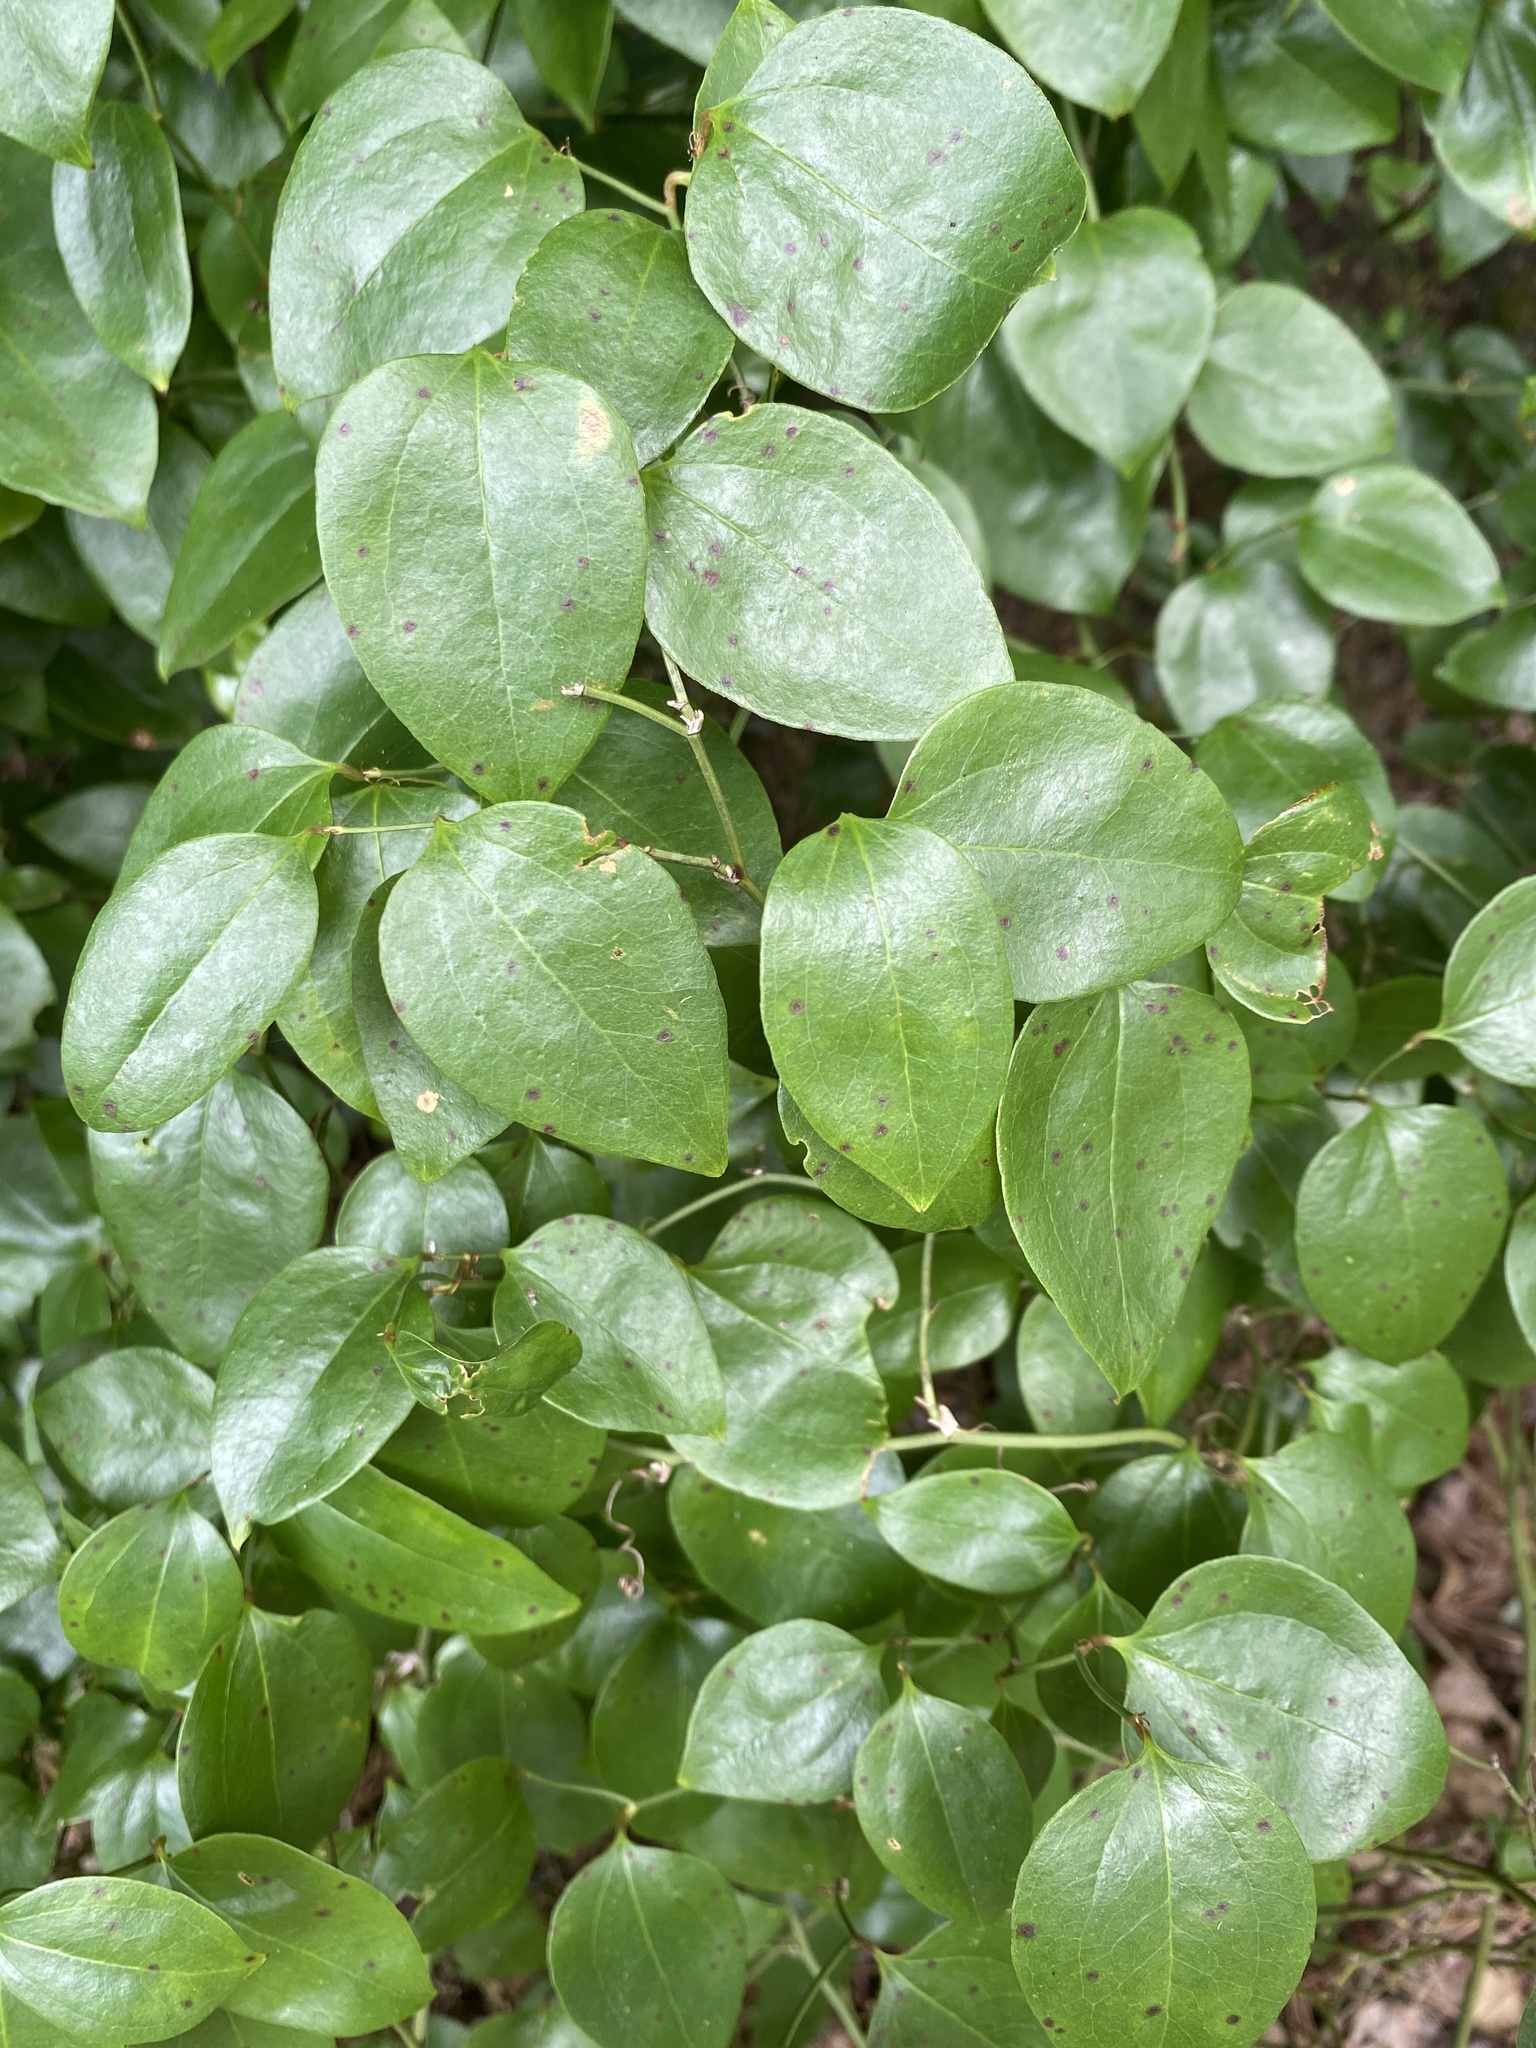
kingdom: Plantae
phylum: Tracheophyta
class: Liliopsida
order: Liliales
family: Smilacaceae
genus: Smilax
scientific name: Smilax rotundifolia
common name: Bullbriar
